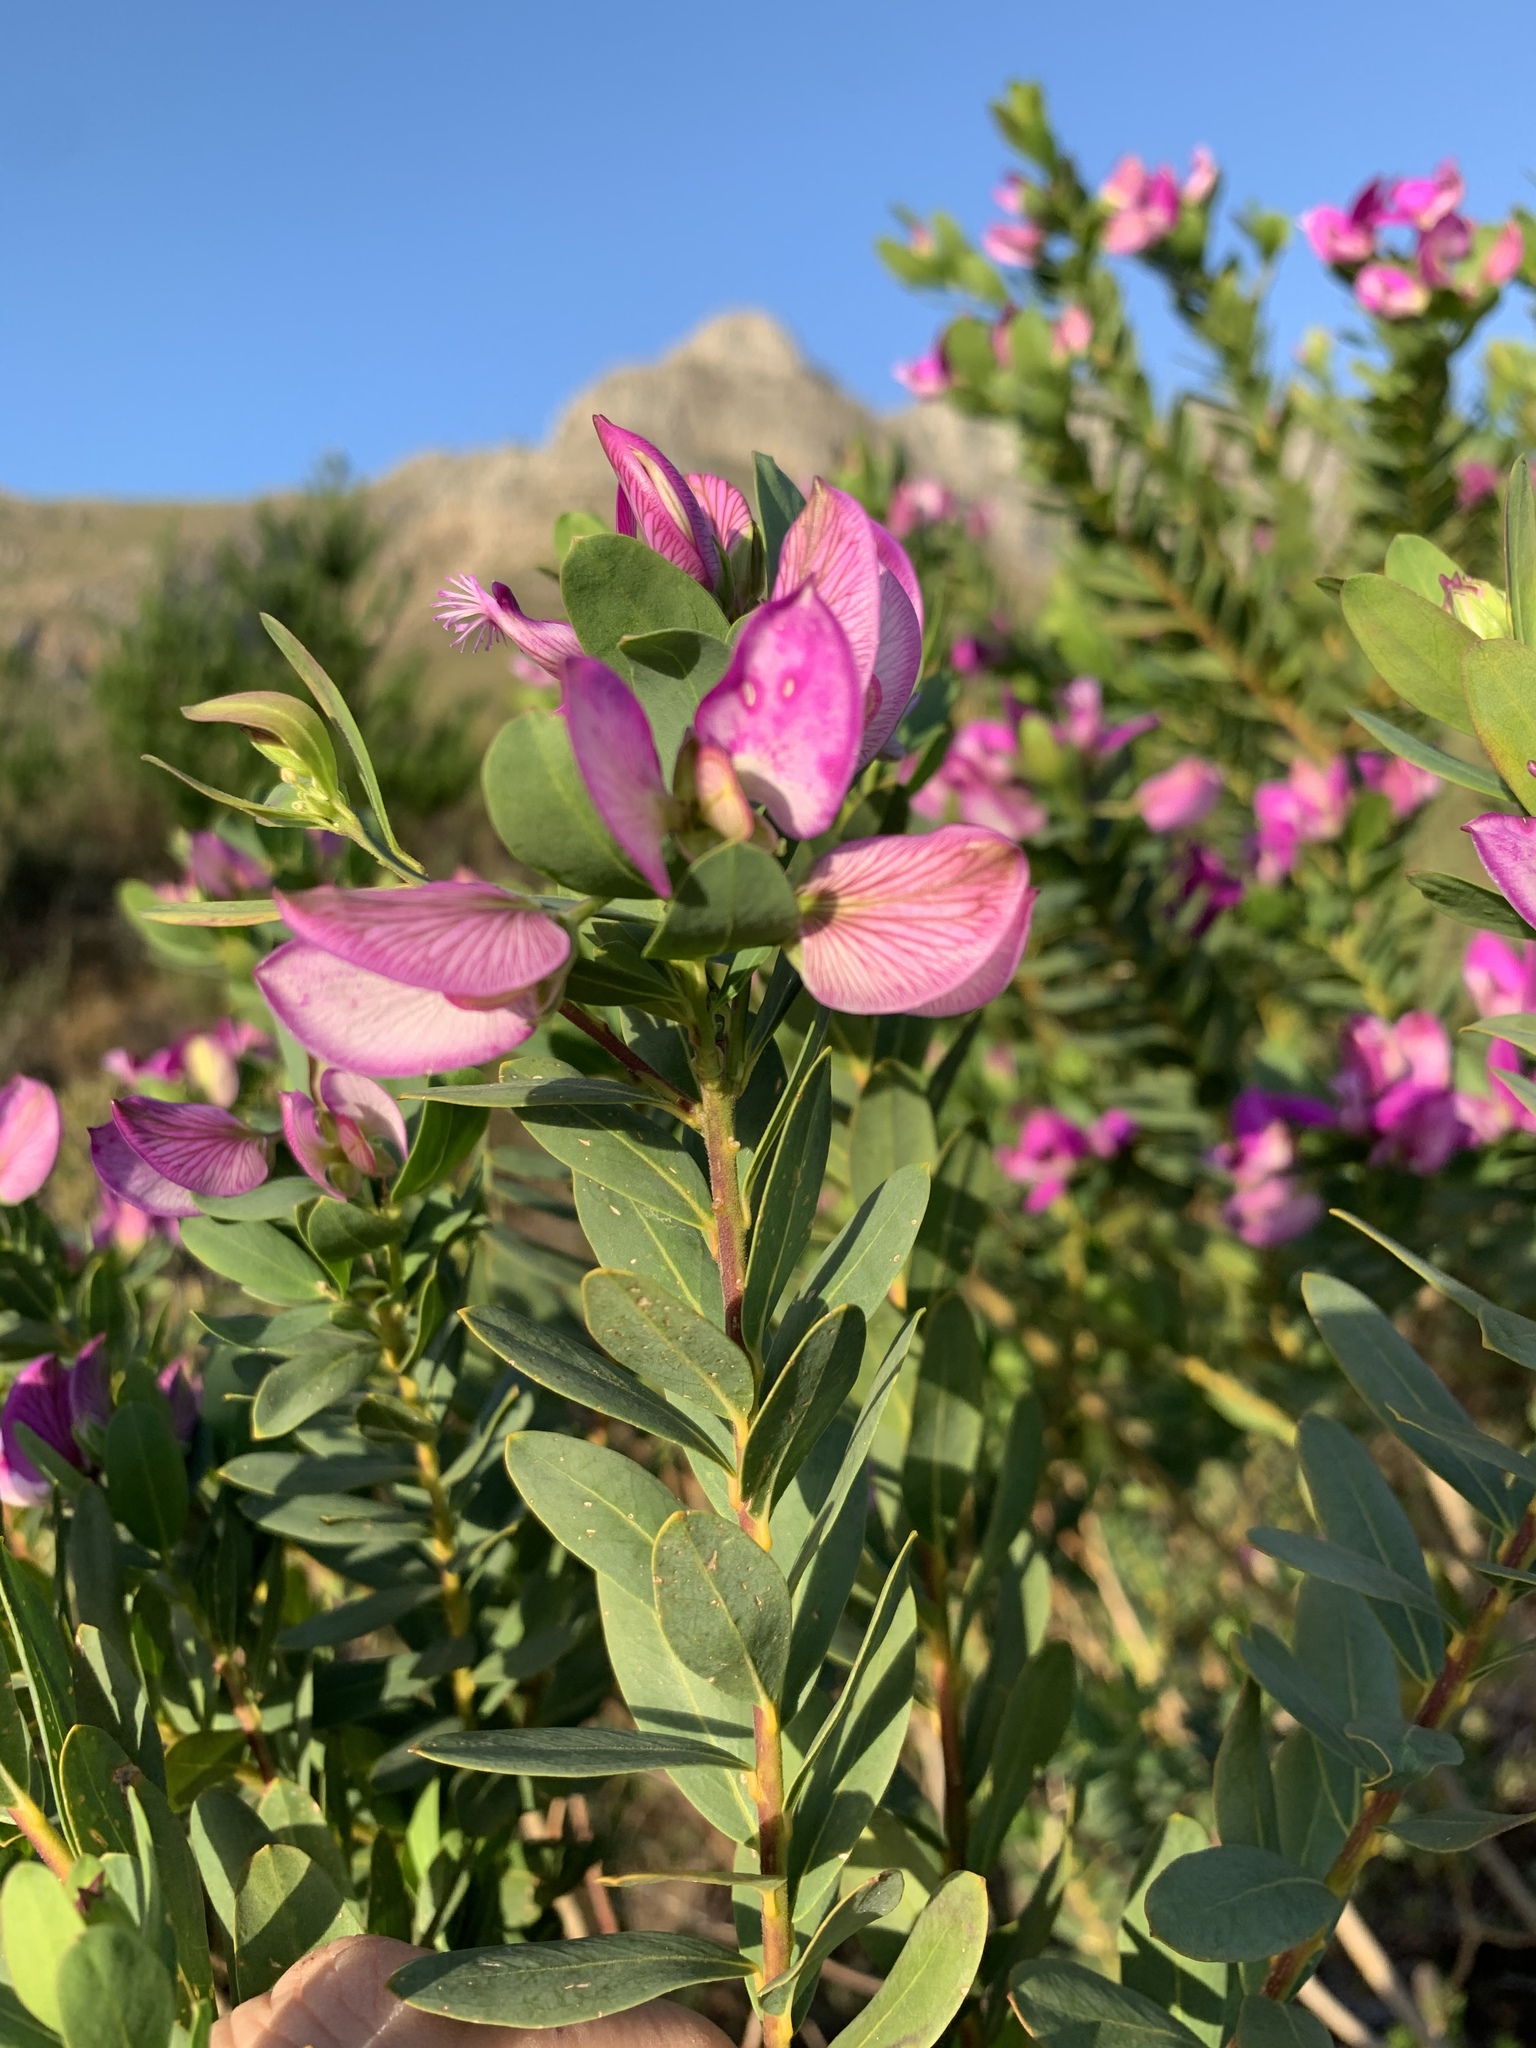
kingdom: Plantae
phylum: Tracheophyta
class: Magnoliopsida
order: Fabales
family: Polygalaceae
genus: Polygala
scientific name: Polygala myrtifolia
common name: Myrtle-leaf milkwort
